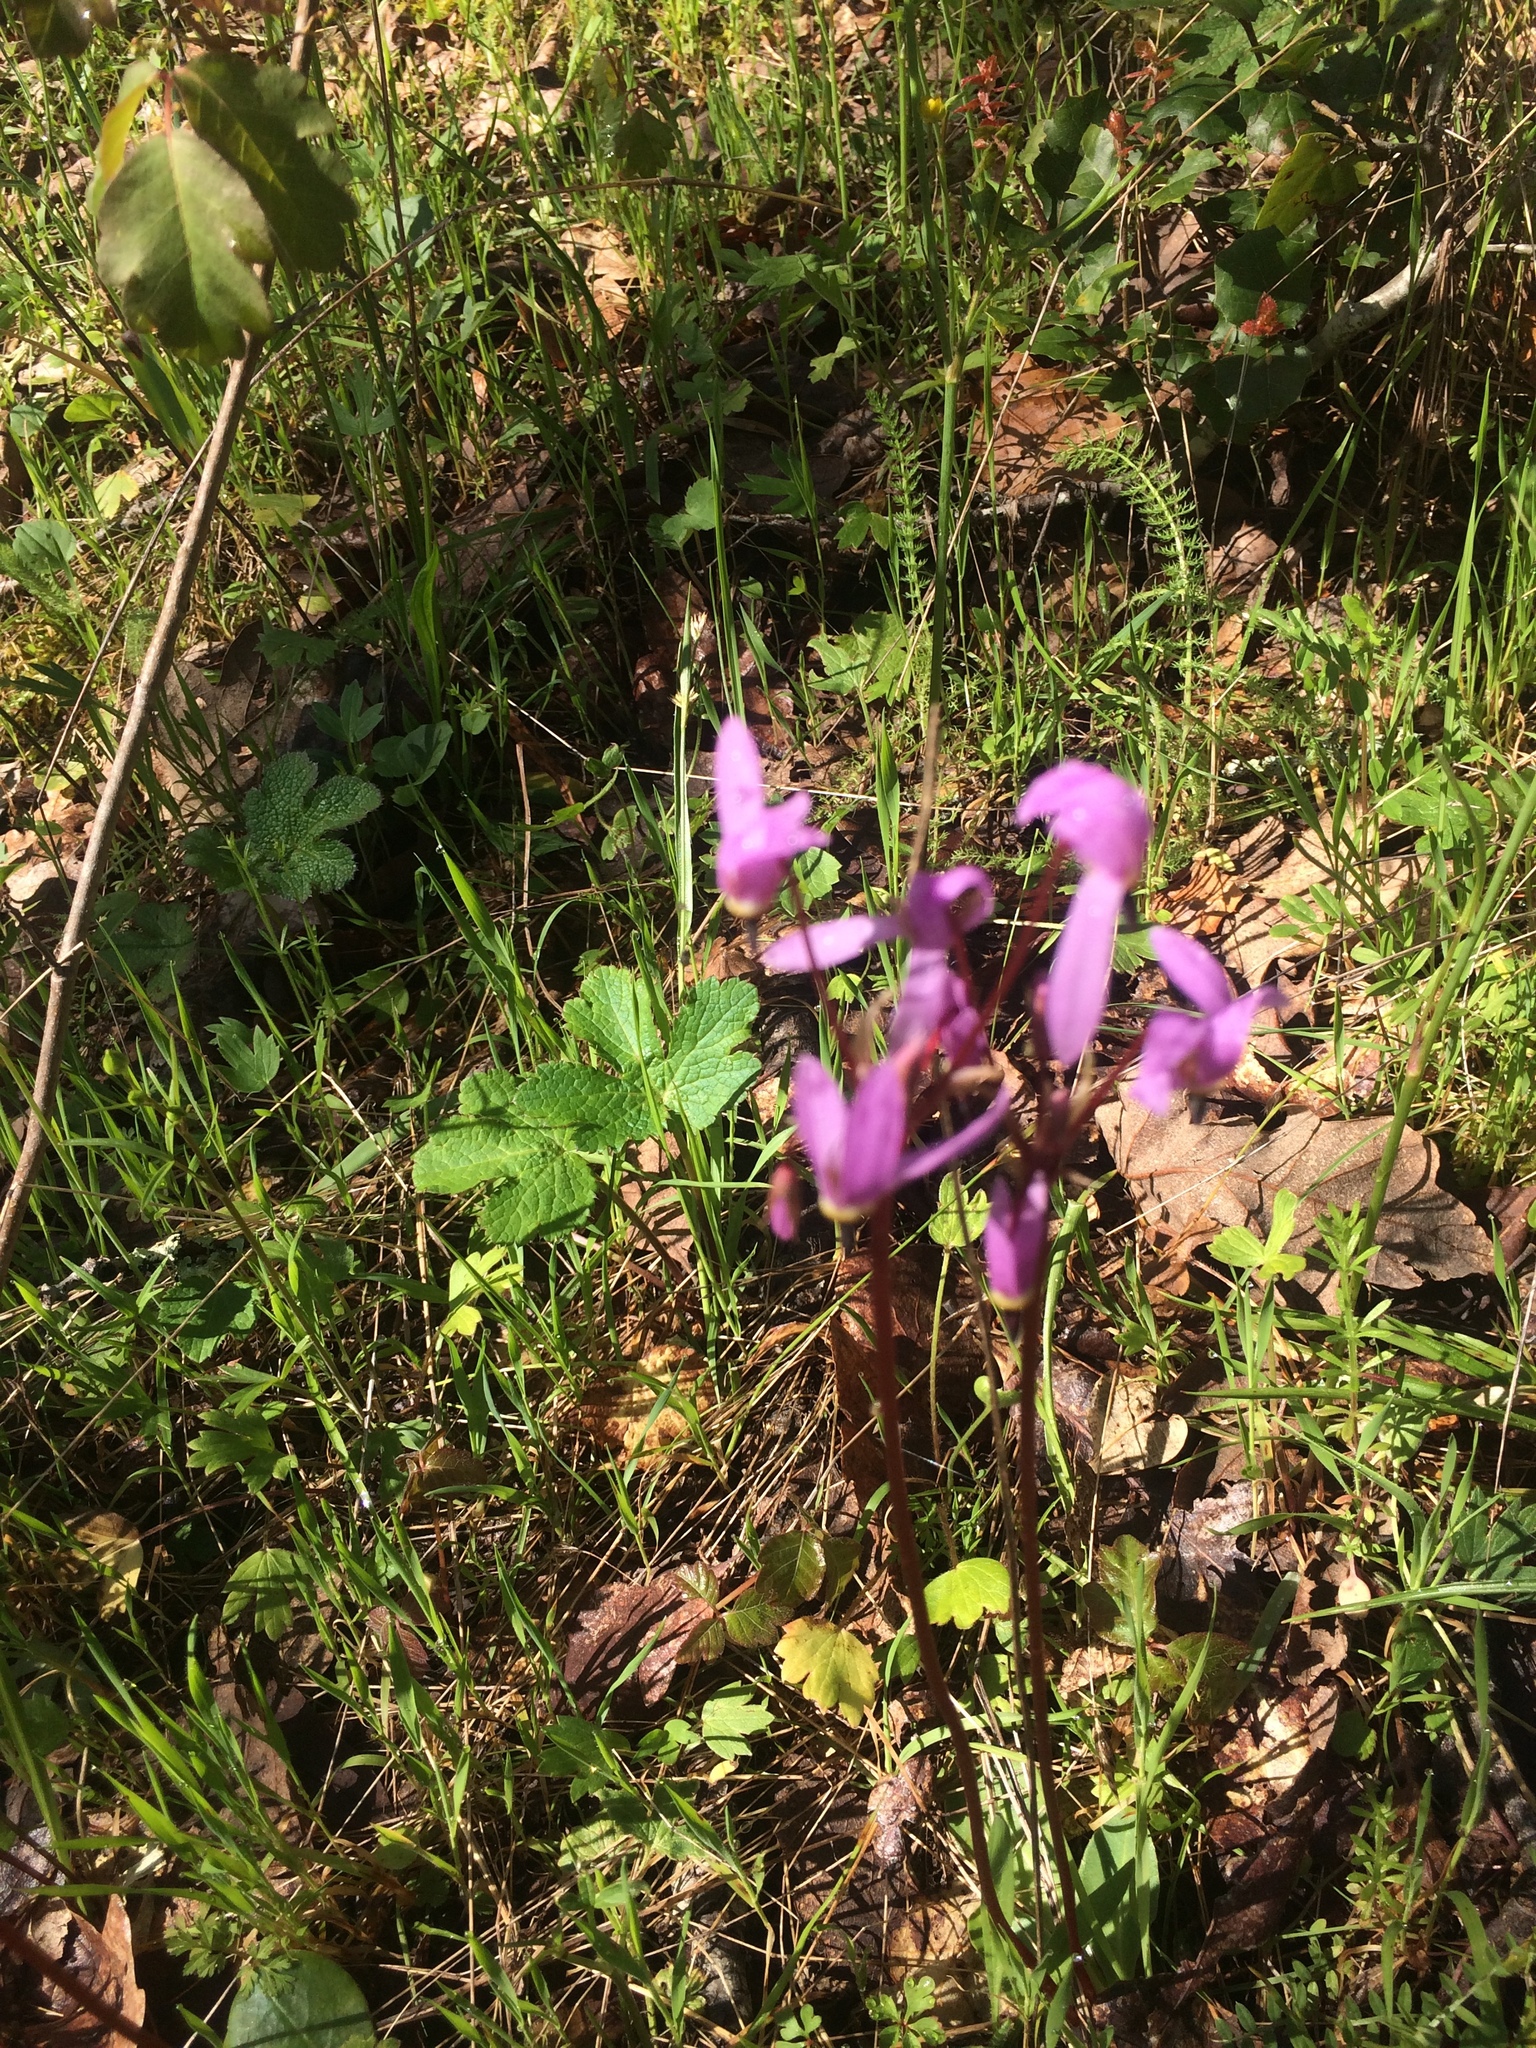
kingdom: Plantae
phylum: Tracheophyta
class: Magnoliopsida
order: Ericales
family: Primulaceae
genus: Dodecatheon
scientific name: Dodecatheon hendersonii
